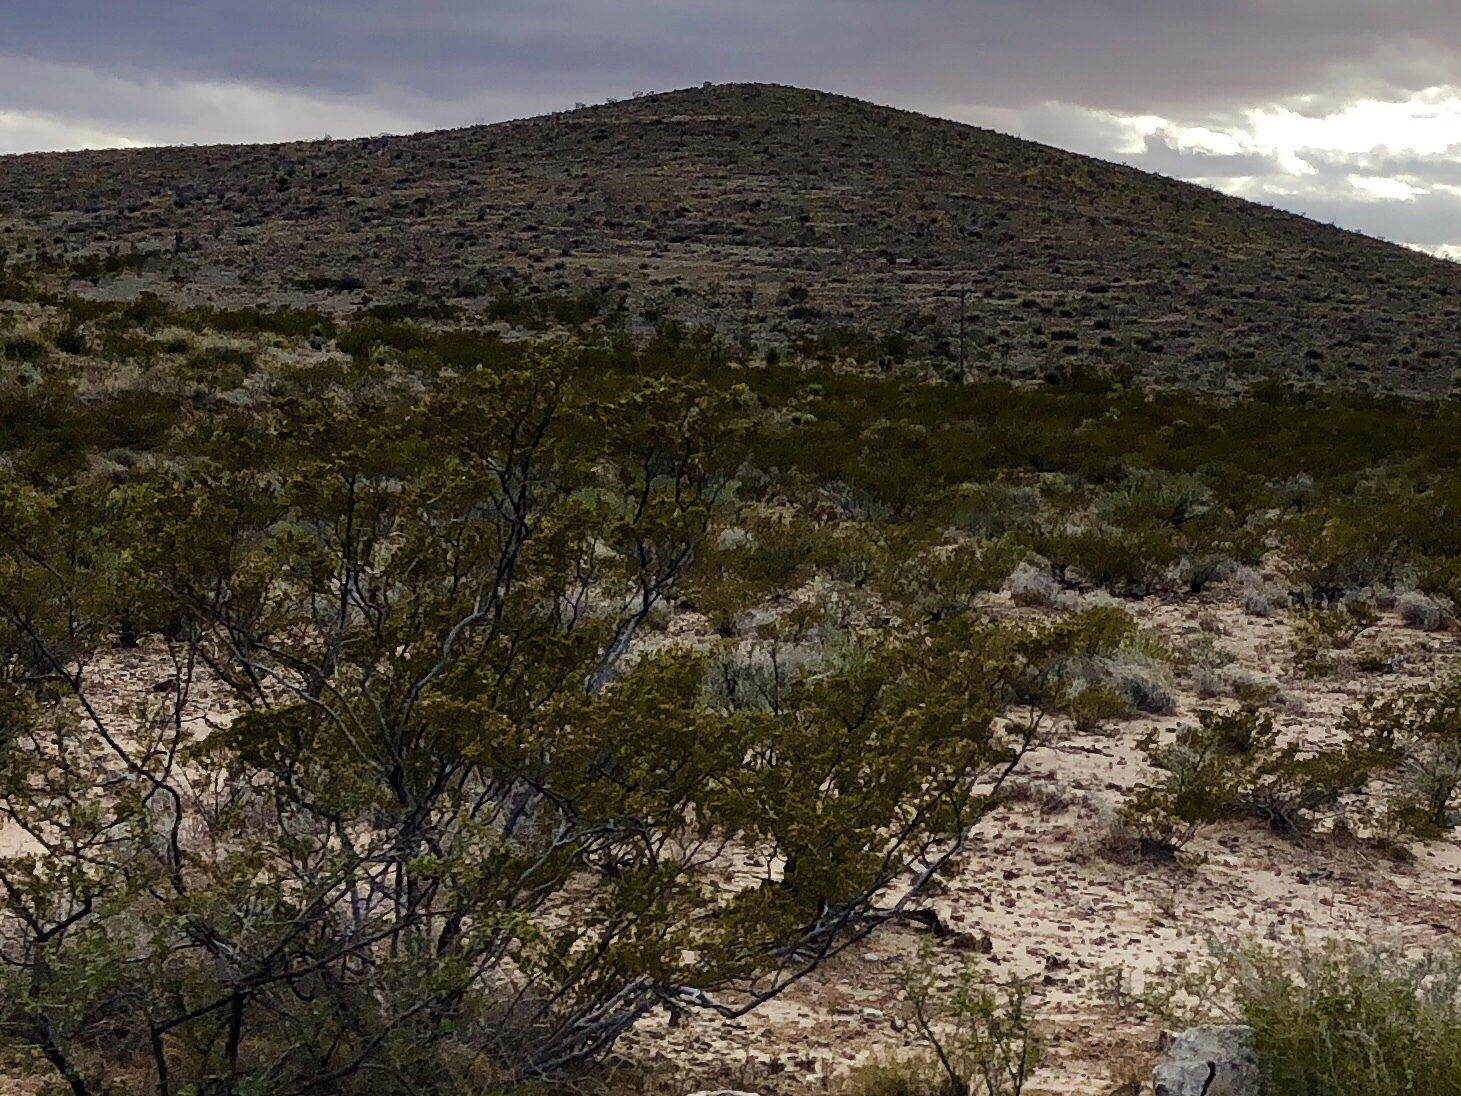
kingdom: Plantae
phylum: Tracheophyta
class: Magnoliopsida
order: Zygophyllales
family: Zygophyllaceae
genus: Larrea
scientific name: Larrea tridentata
